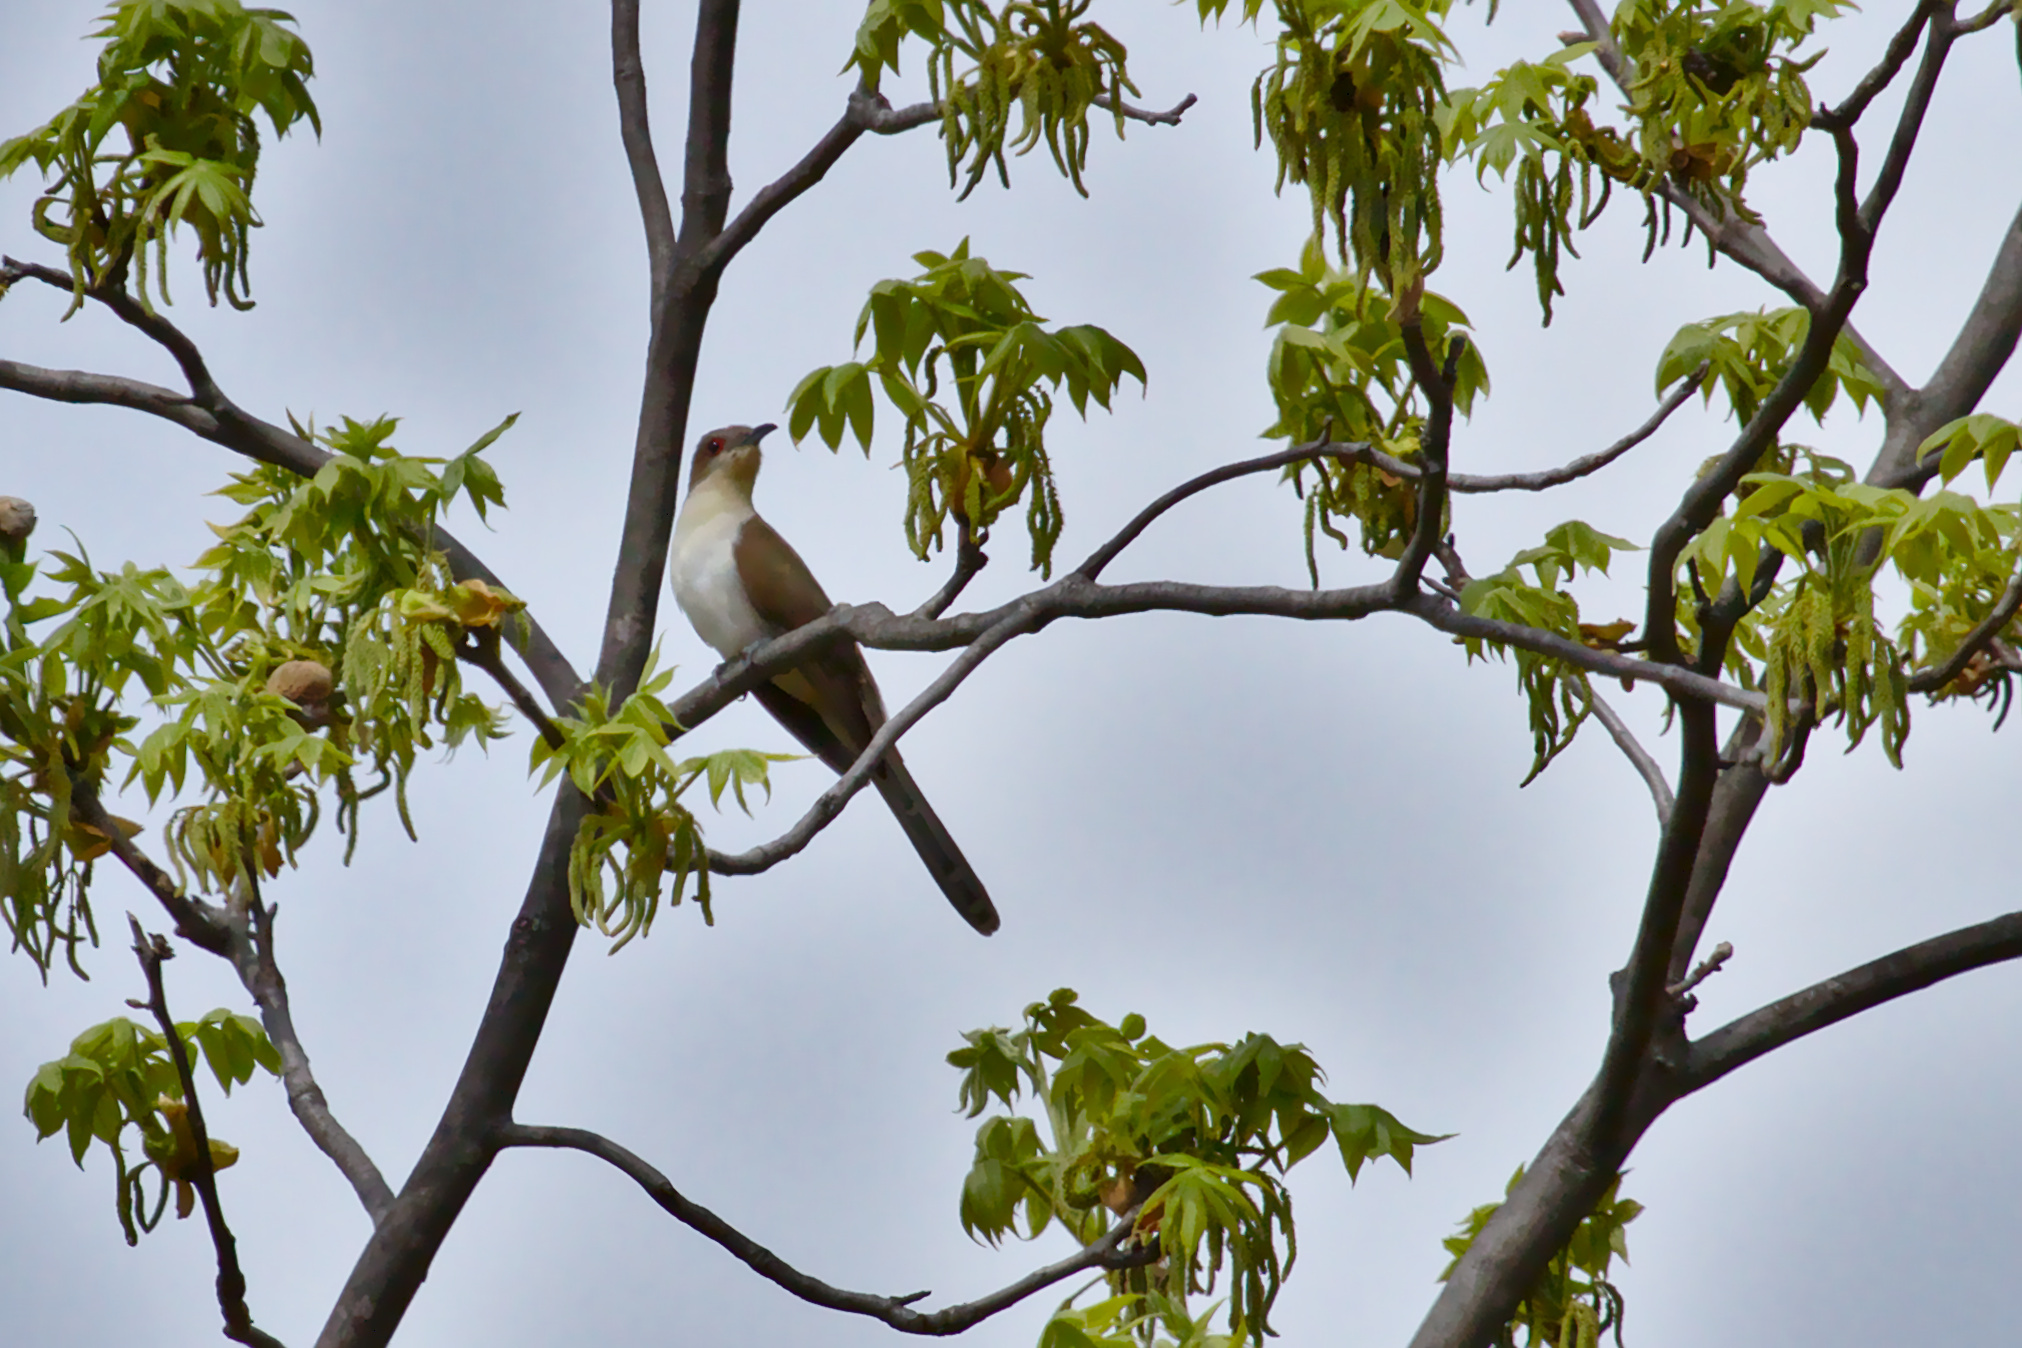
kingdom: Animalia
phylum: Chordata
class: Aves
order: Cuculiformes
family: Cuculidae
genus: Coccyzus
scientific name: Coccyzus erythropthalmus
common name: Black-billed cuckoo
